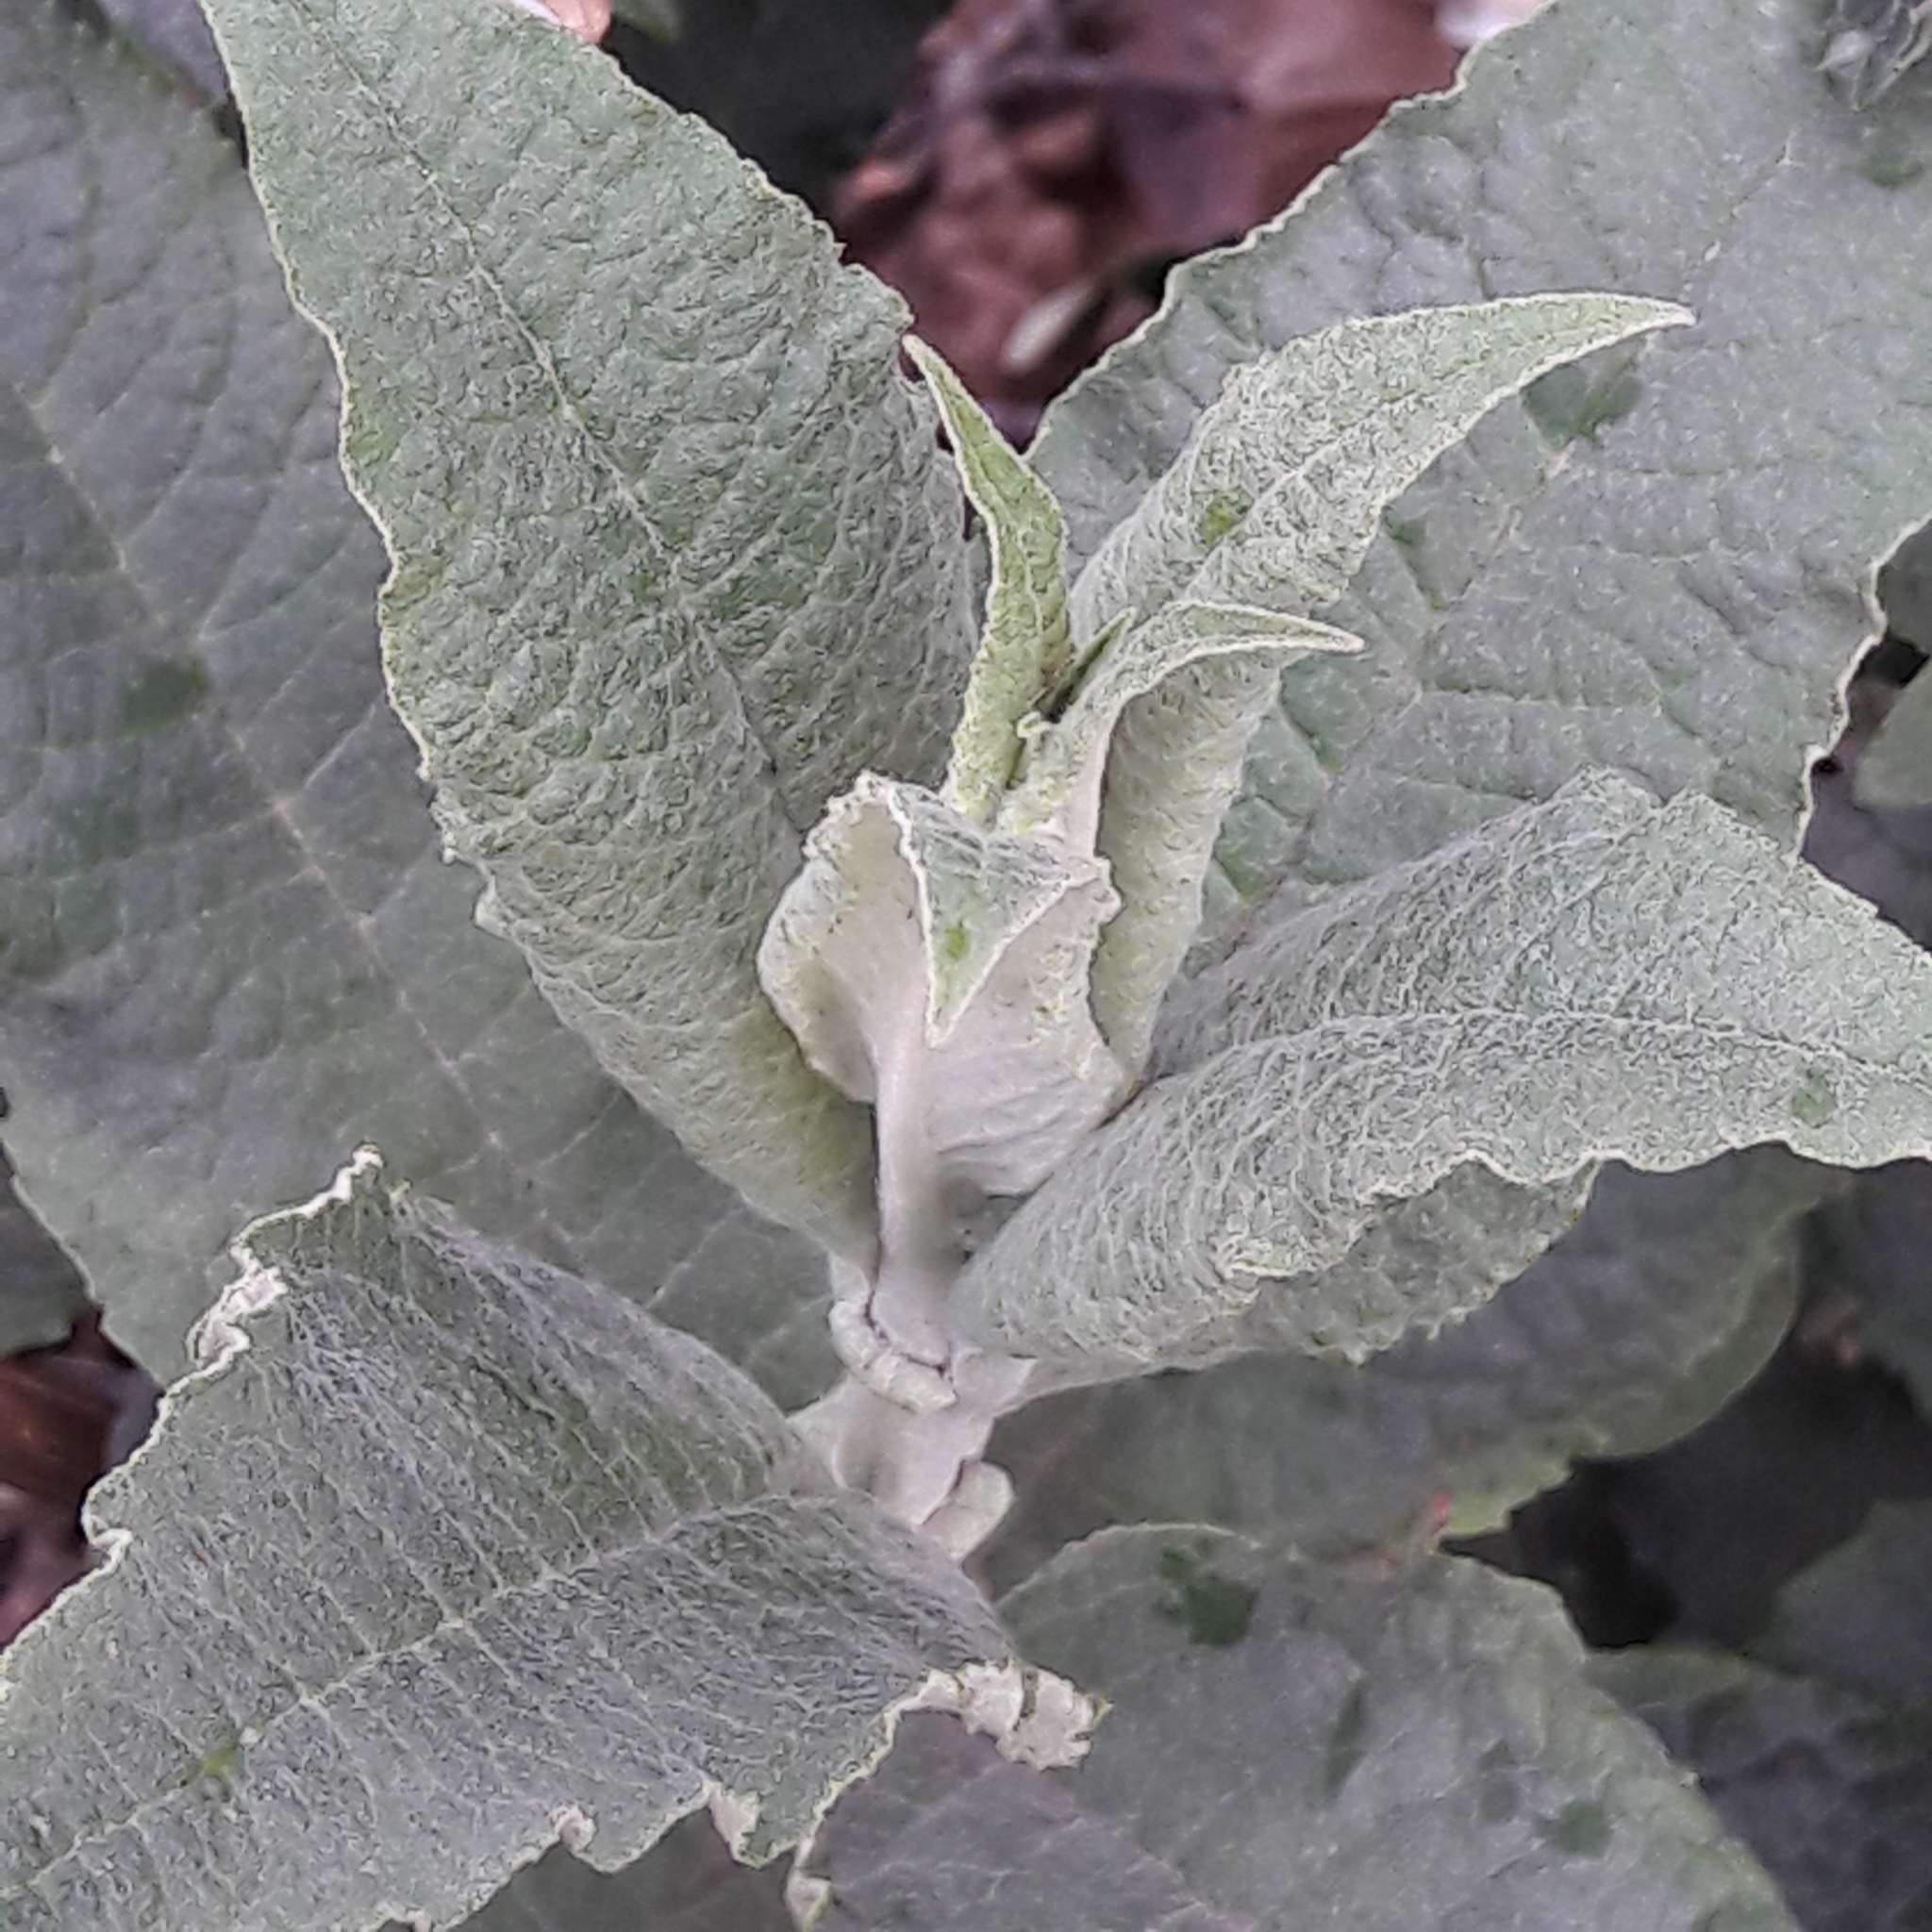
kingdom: Plantae
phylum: Tracheophyta
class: Magnoliopsida
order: Lamiales
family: Scrophulariaceae
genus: Buddleja
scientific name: Buddleja davidii
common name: Butterfly-bush
